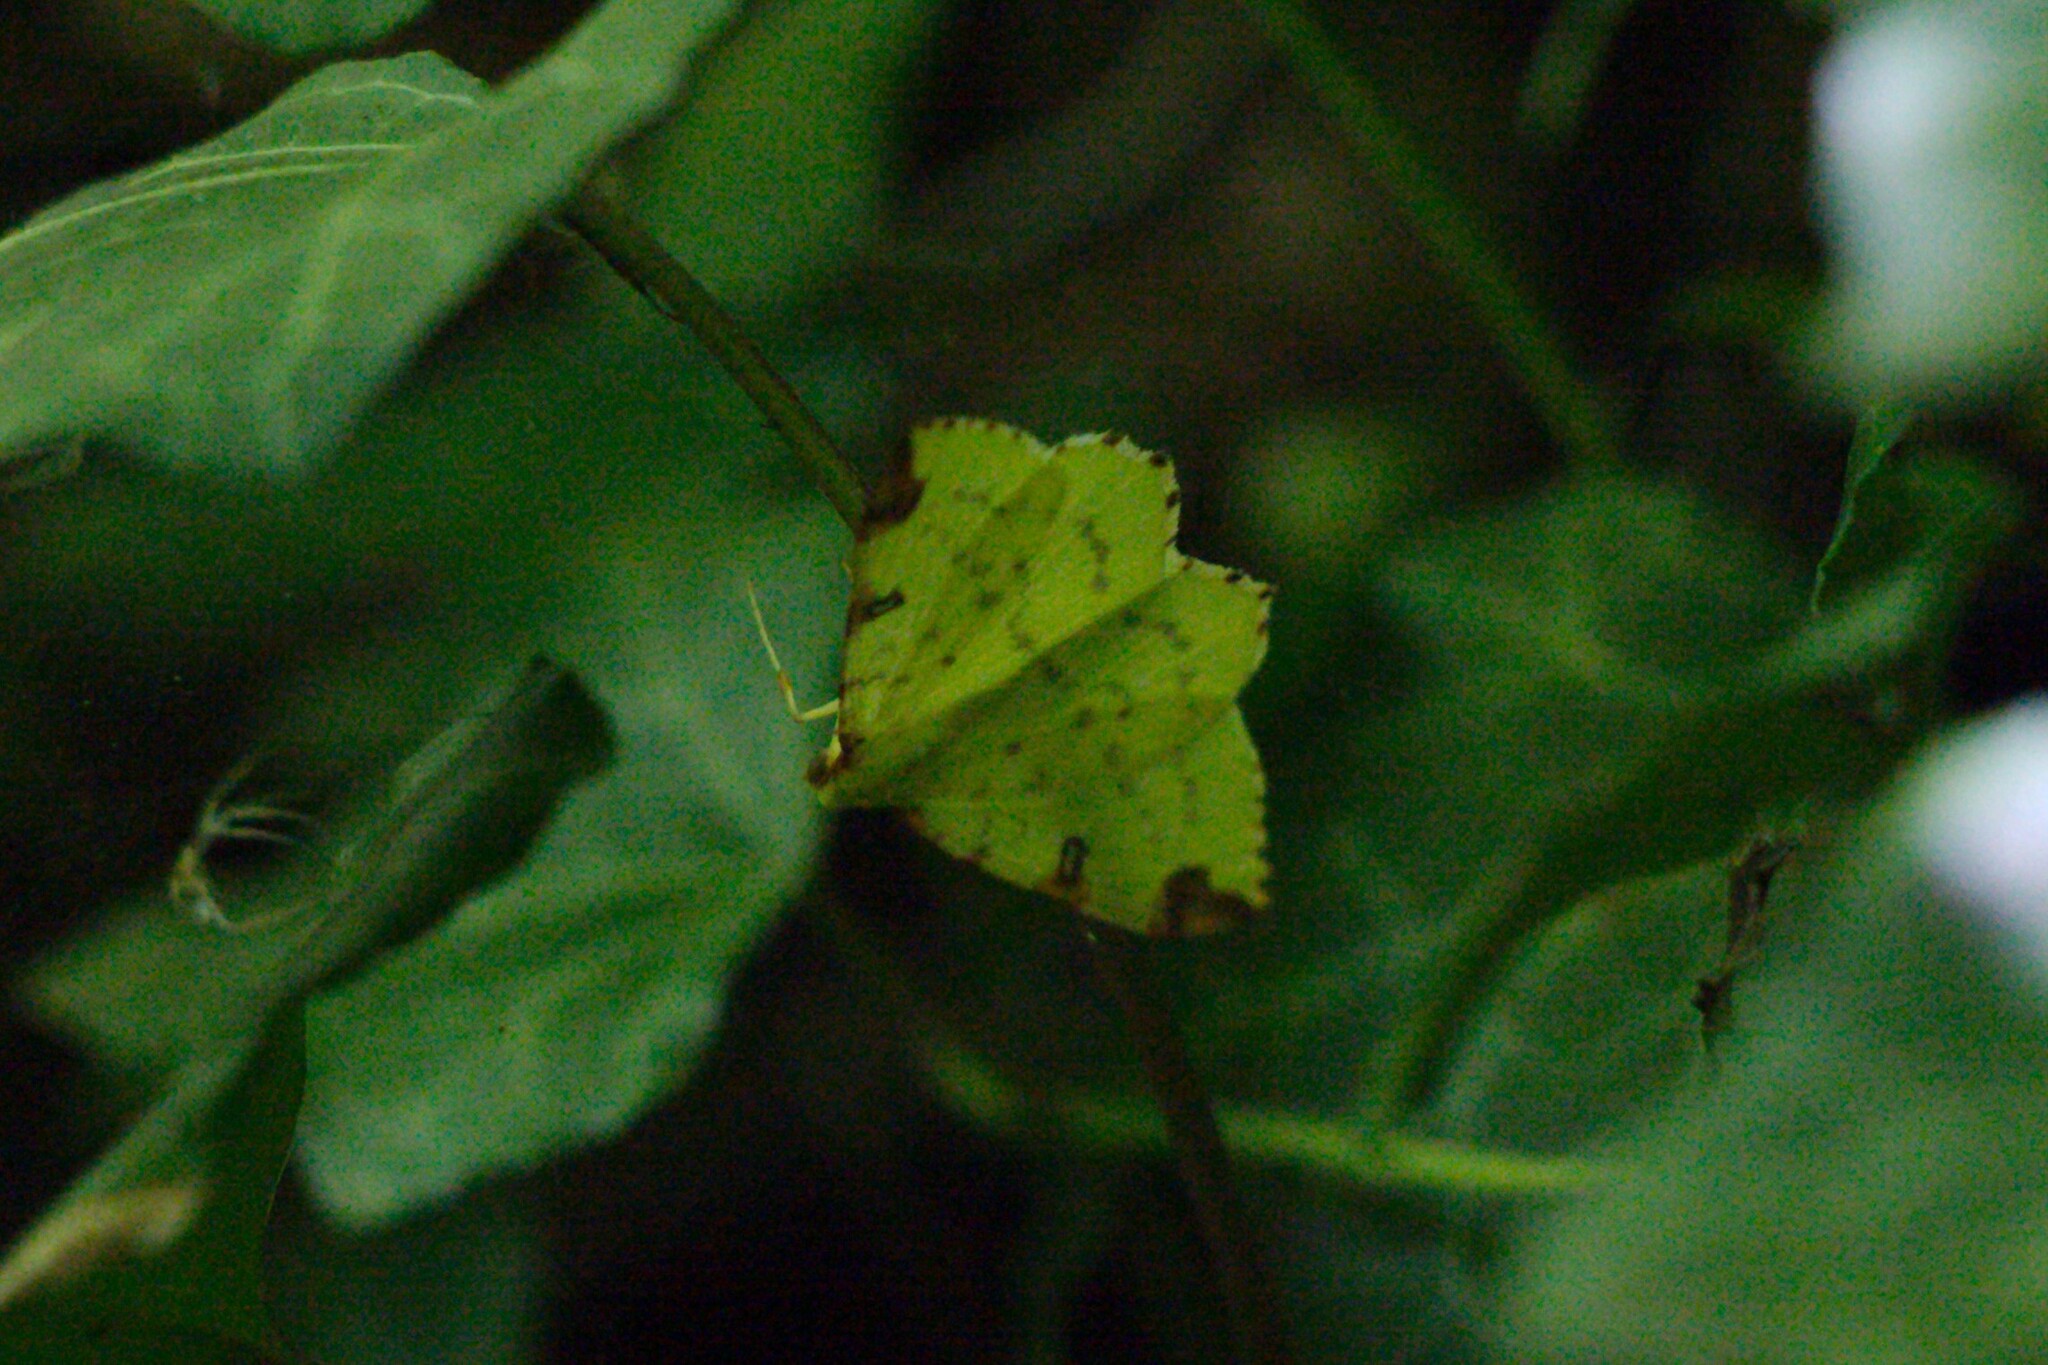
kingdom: Animalia
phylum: Arthropoda
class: Insecta
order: Lepidoptera
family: Geometridae
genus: Opisthograptis
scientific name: Opisthograptis luteolata
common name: Brimstone moth
